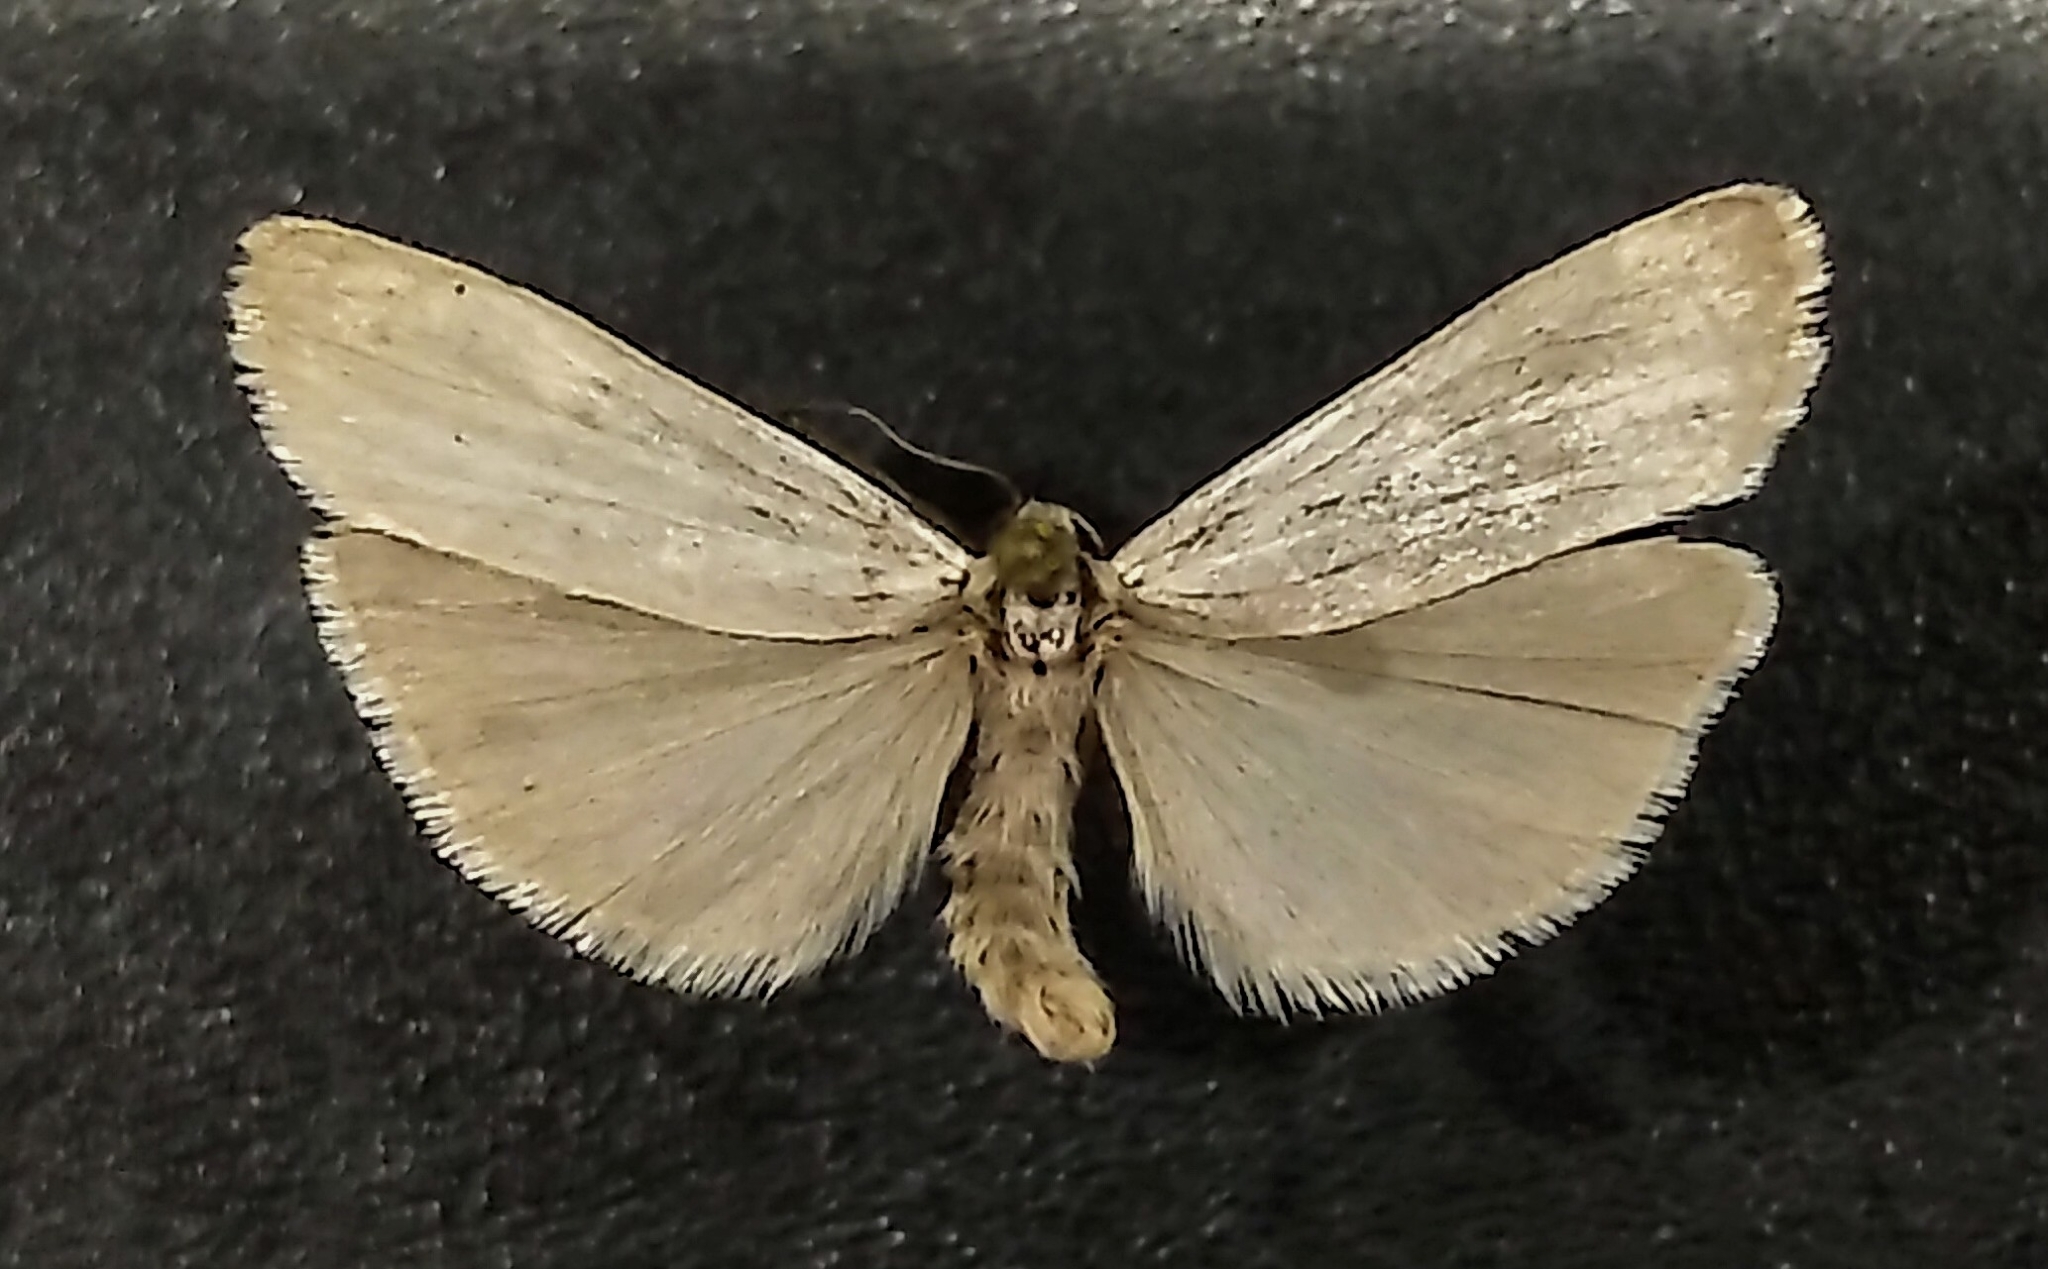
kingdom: Animalia
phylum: Arthropoda
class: Insecta
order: Lepidoptera
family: Erebidae
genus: Crambidia
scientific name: Crambidia casta
